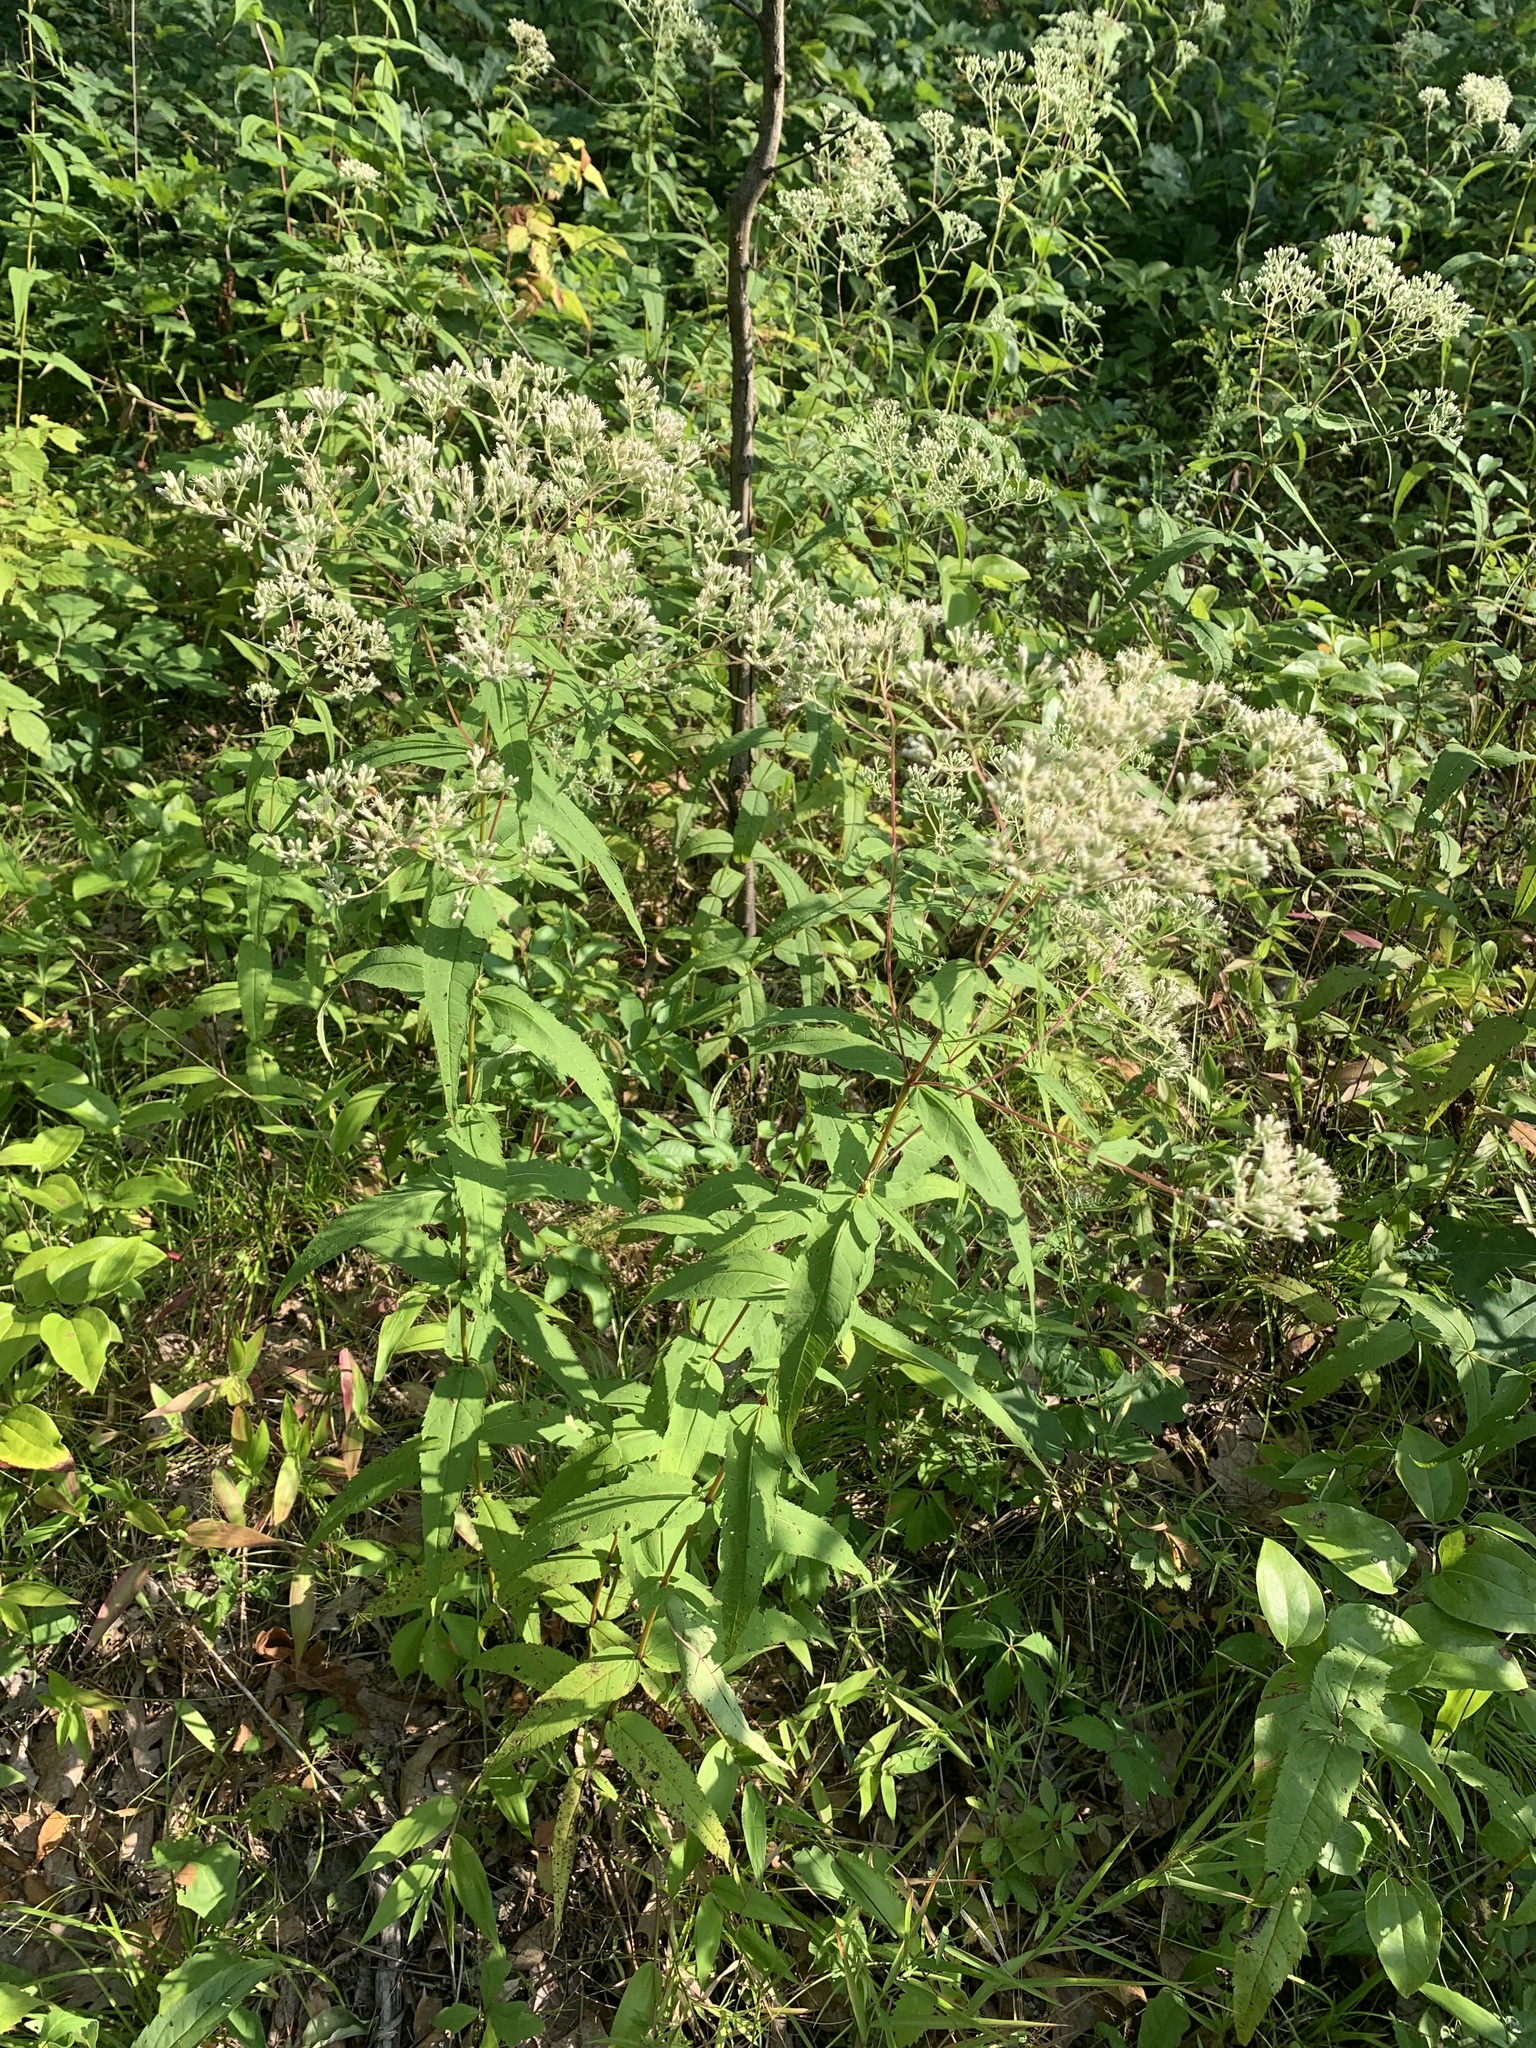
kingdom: Plantae
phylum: Tracheophyta
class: Magnoliopsida
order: Asterales
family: Asteraceae
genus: Eupatorium
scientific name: Eupatorium sessilifolium
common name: Upland boneset
